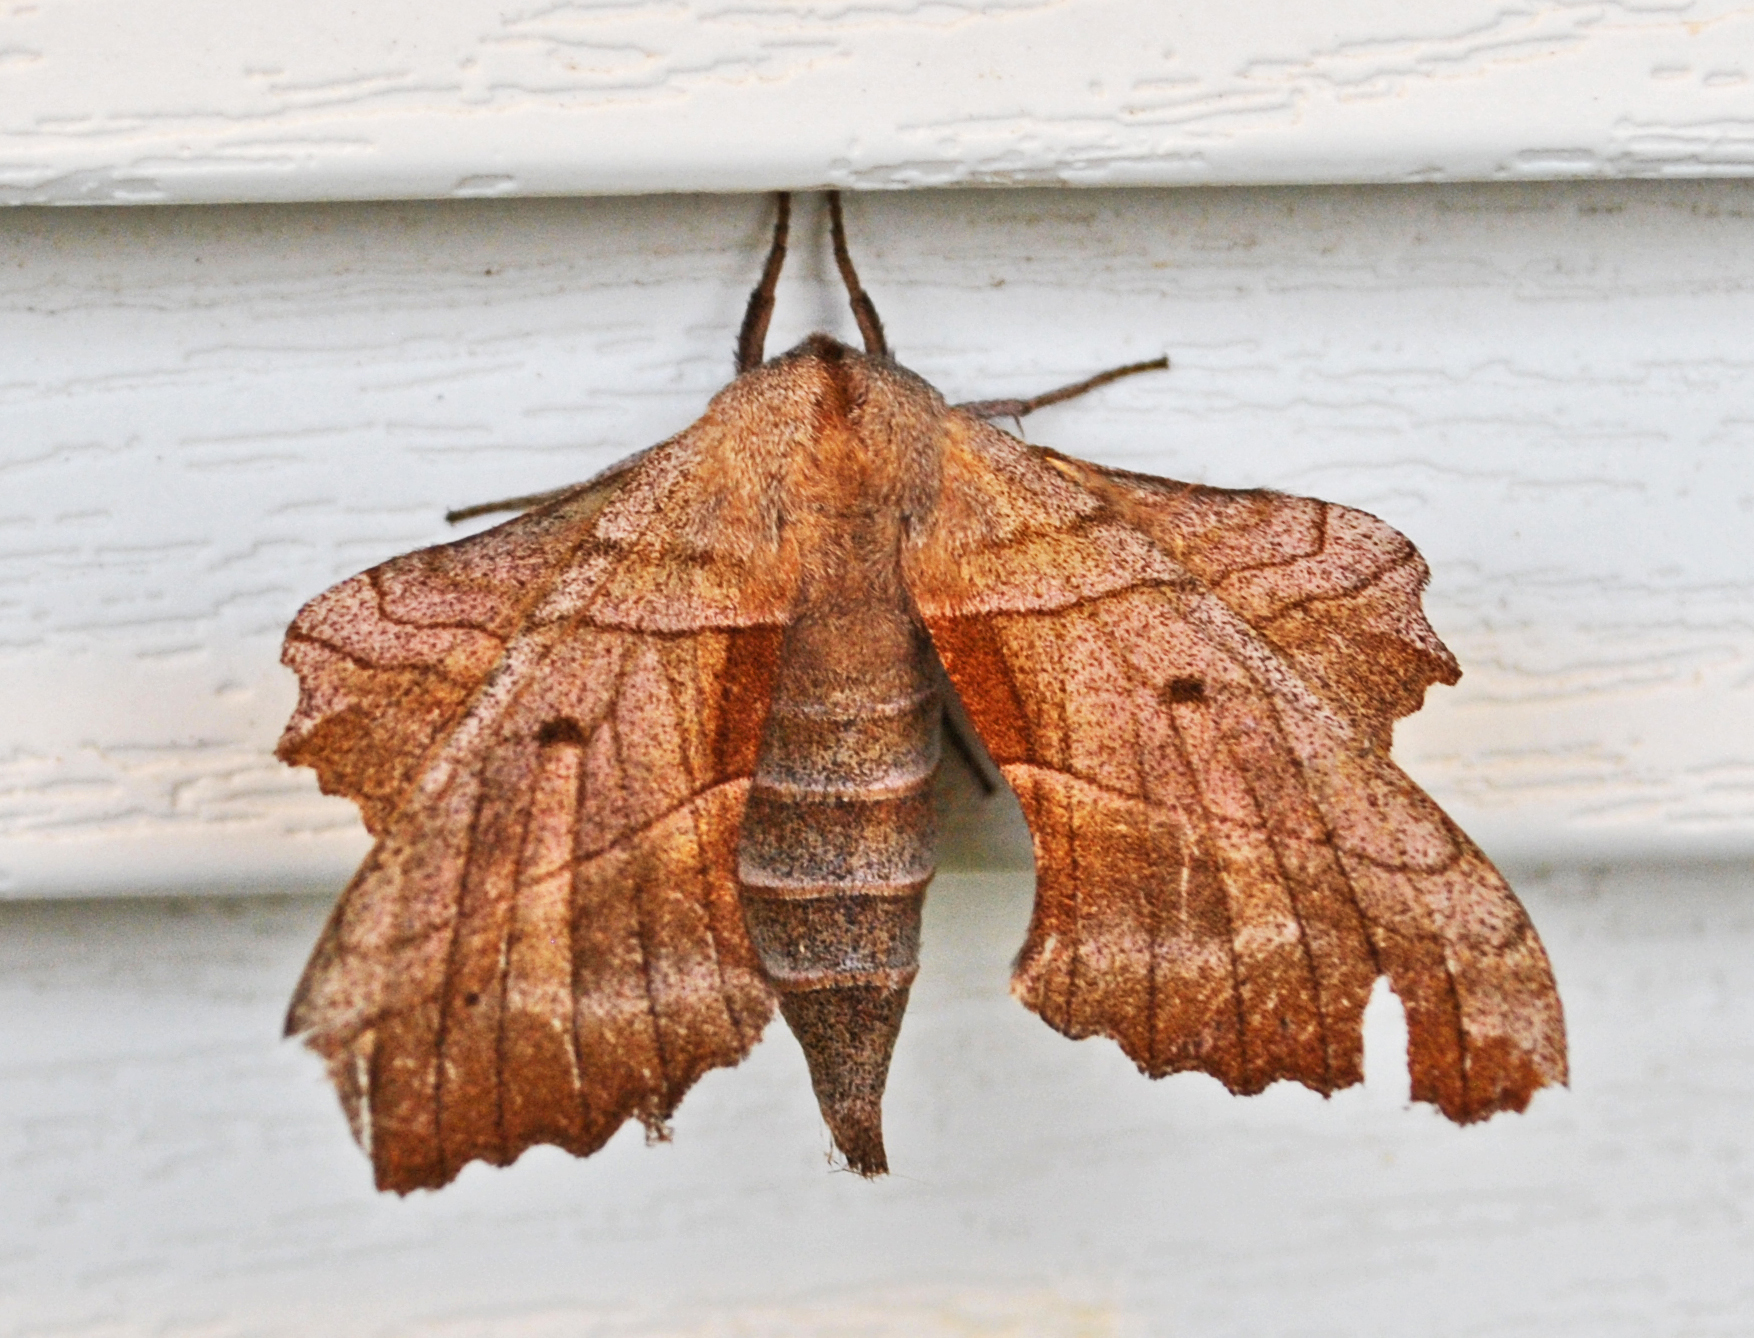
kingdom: Animalia
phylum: Arthropoda
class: Insecta
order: Lepidoptera
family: Sphingidae
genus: Amorpha
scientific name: Amorpha juglandis
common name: Walnut sphinx
